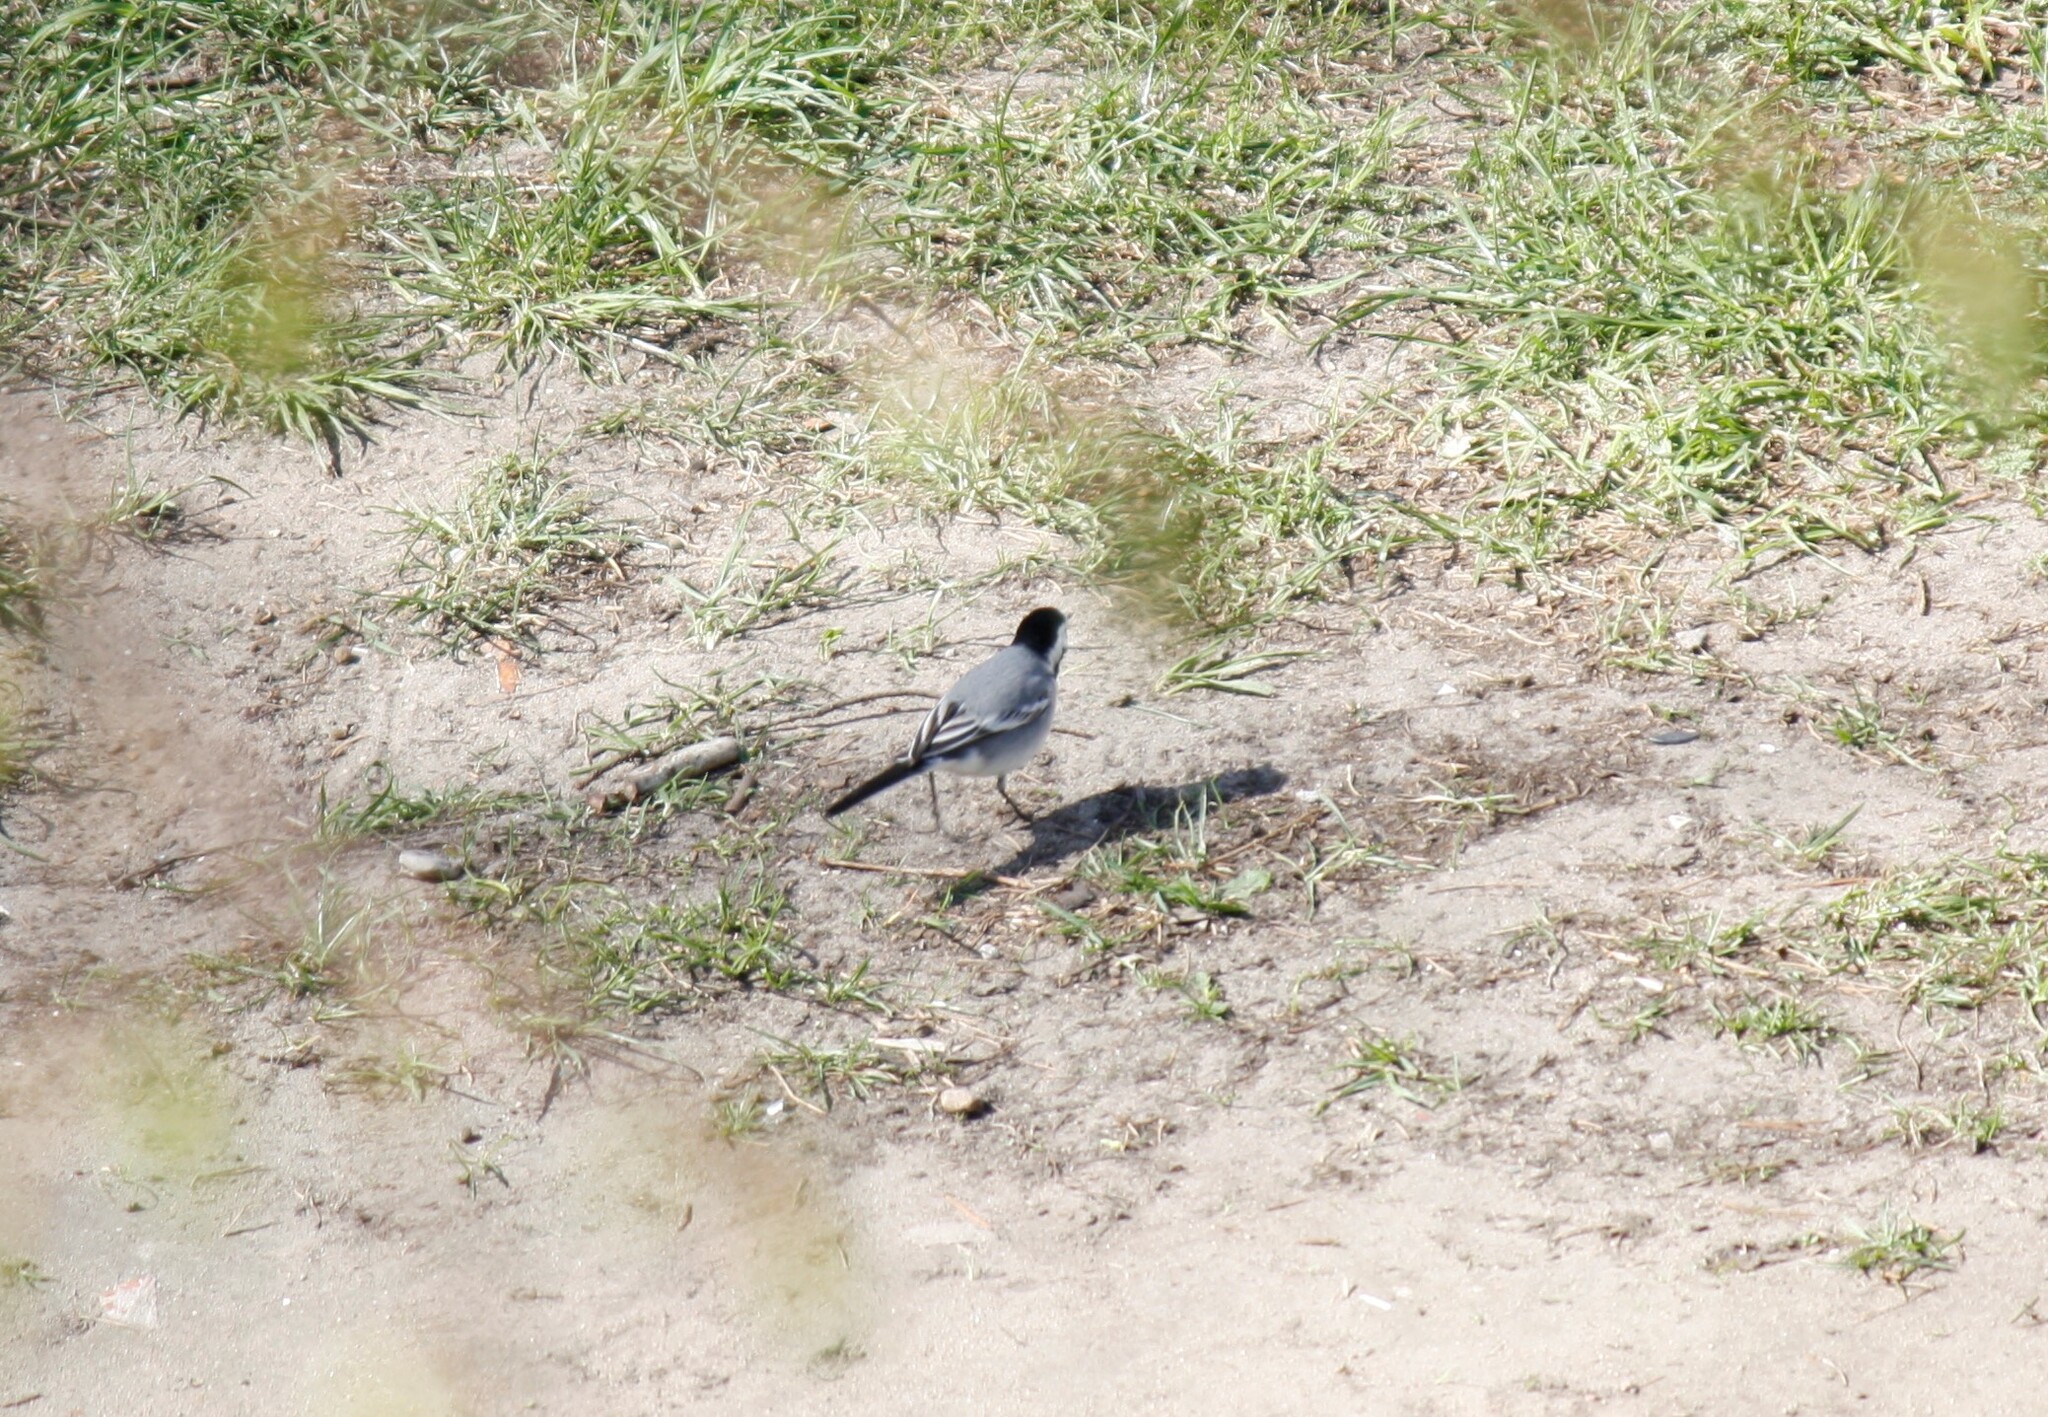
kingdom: Animalia
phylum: Chordata
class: Aves
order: Passeriformes
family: Motacillidae
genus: Motacilla
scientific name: Motacilla alba
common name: White wagtail
